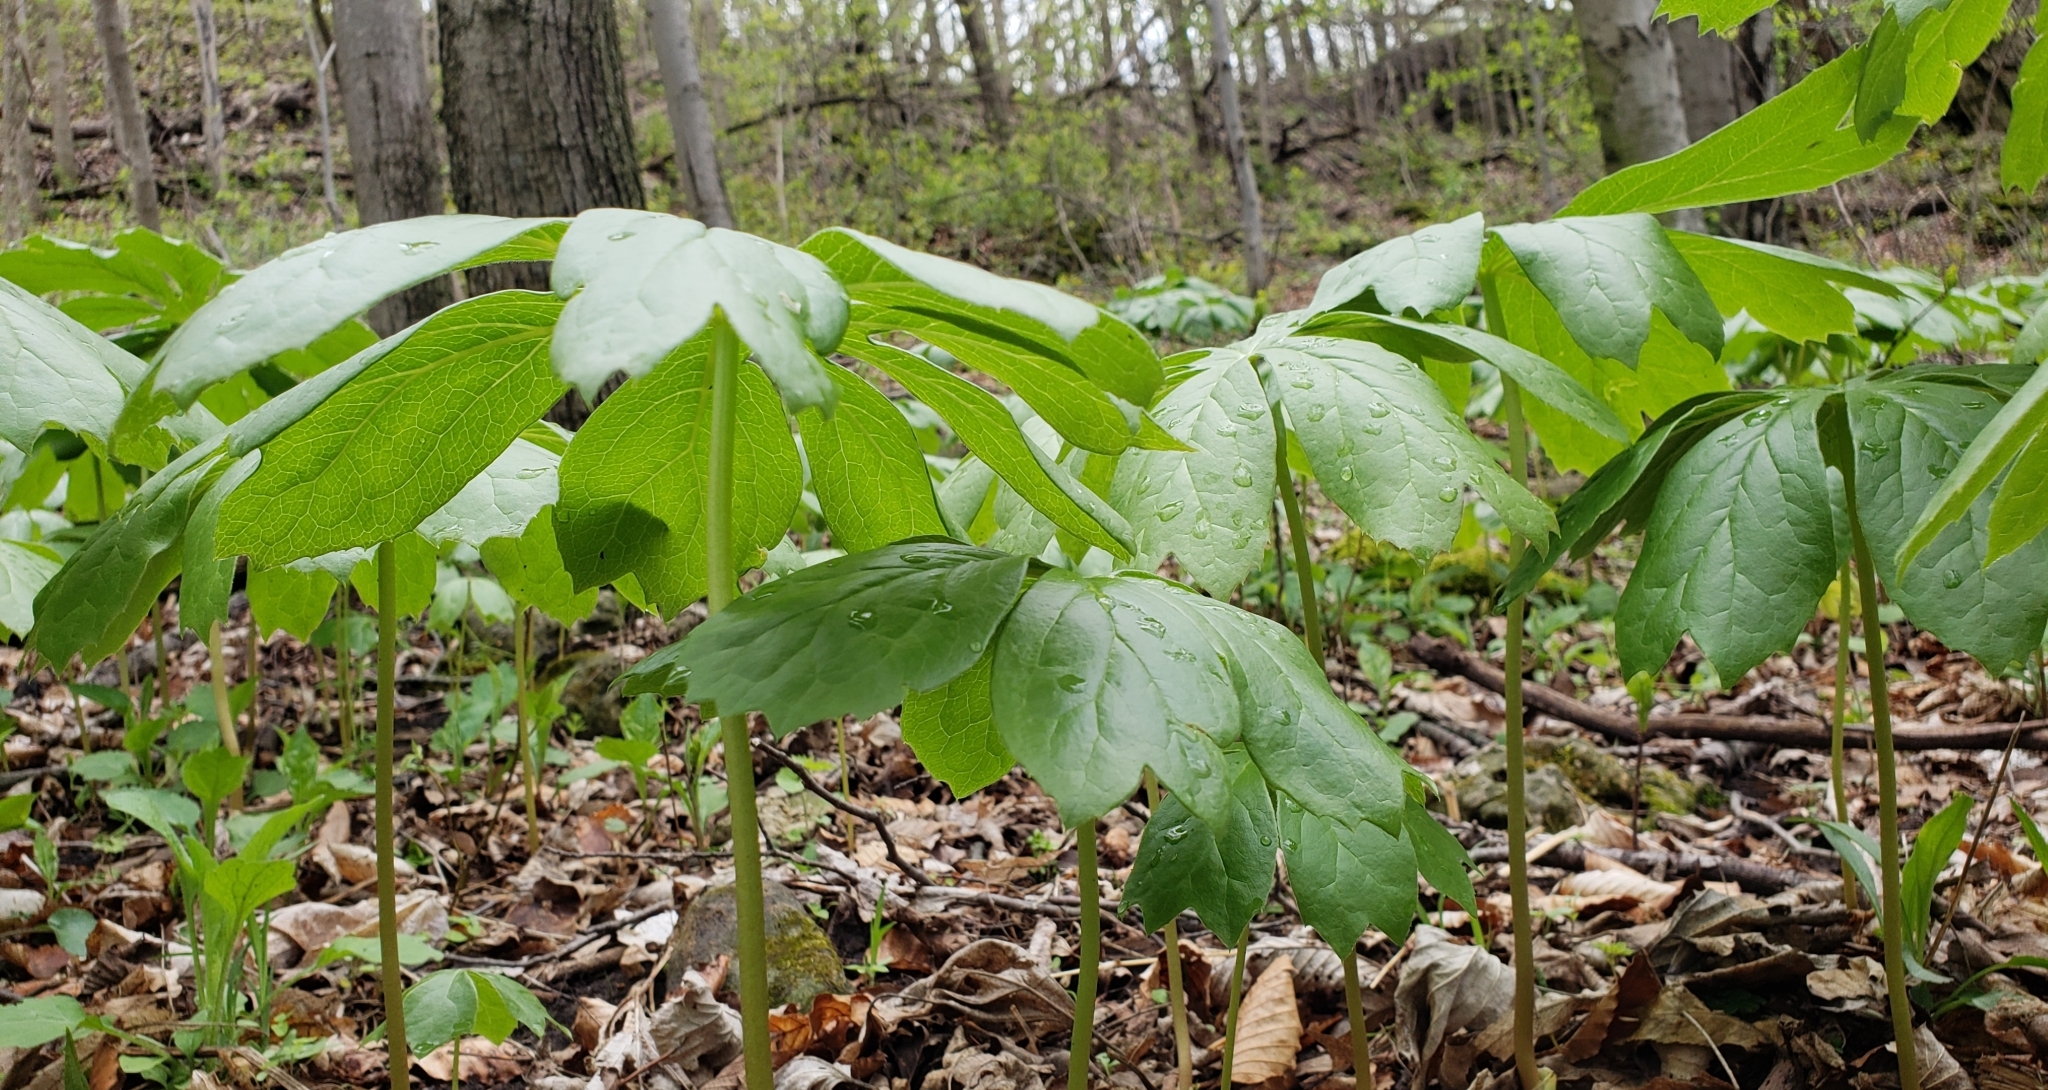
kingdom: Plantae
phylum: Tracheophyta
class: Magnoliopsida
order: Ranunculales
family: Berberidaceae
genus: Podophyllum
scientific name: Podophyllum peltatum
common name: Wild mandrake
